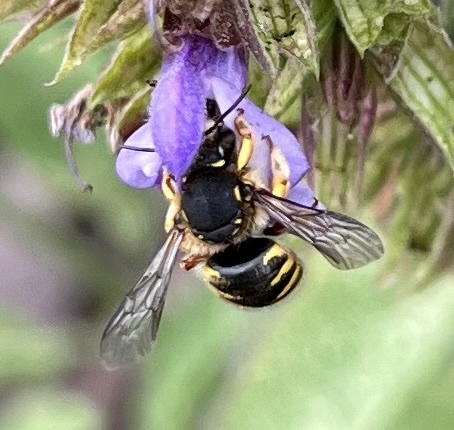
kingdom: Animalia
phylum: Arthropoda
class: Insecta
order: Hymenoptera
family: Megachilidae
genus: Anthidium
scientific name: Anthidium manicatum
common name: Wool carder bee
